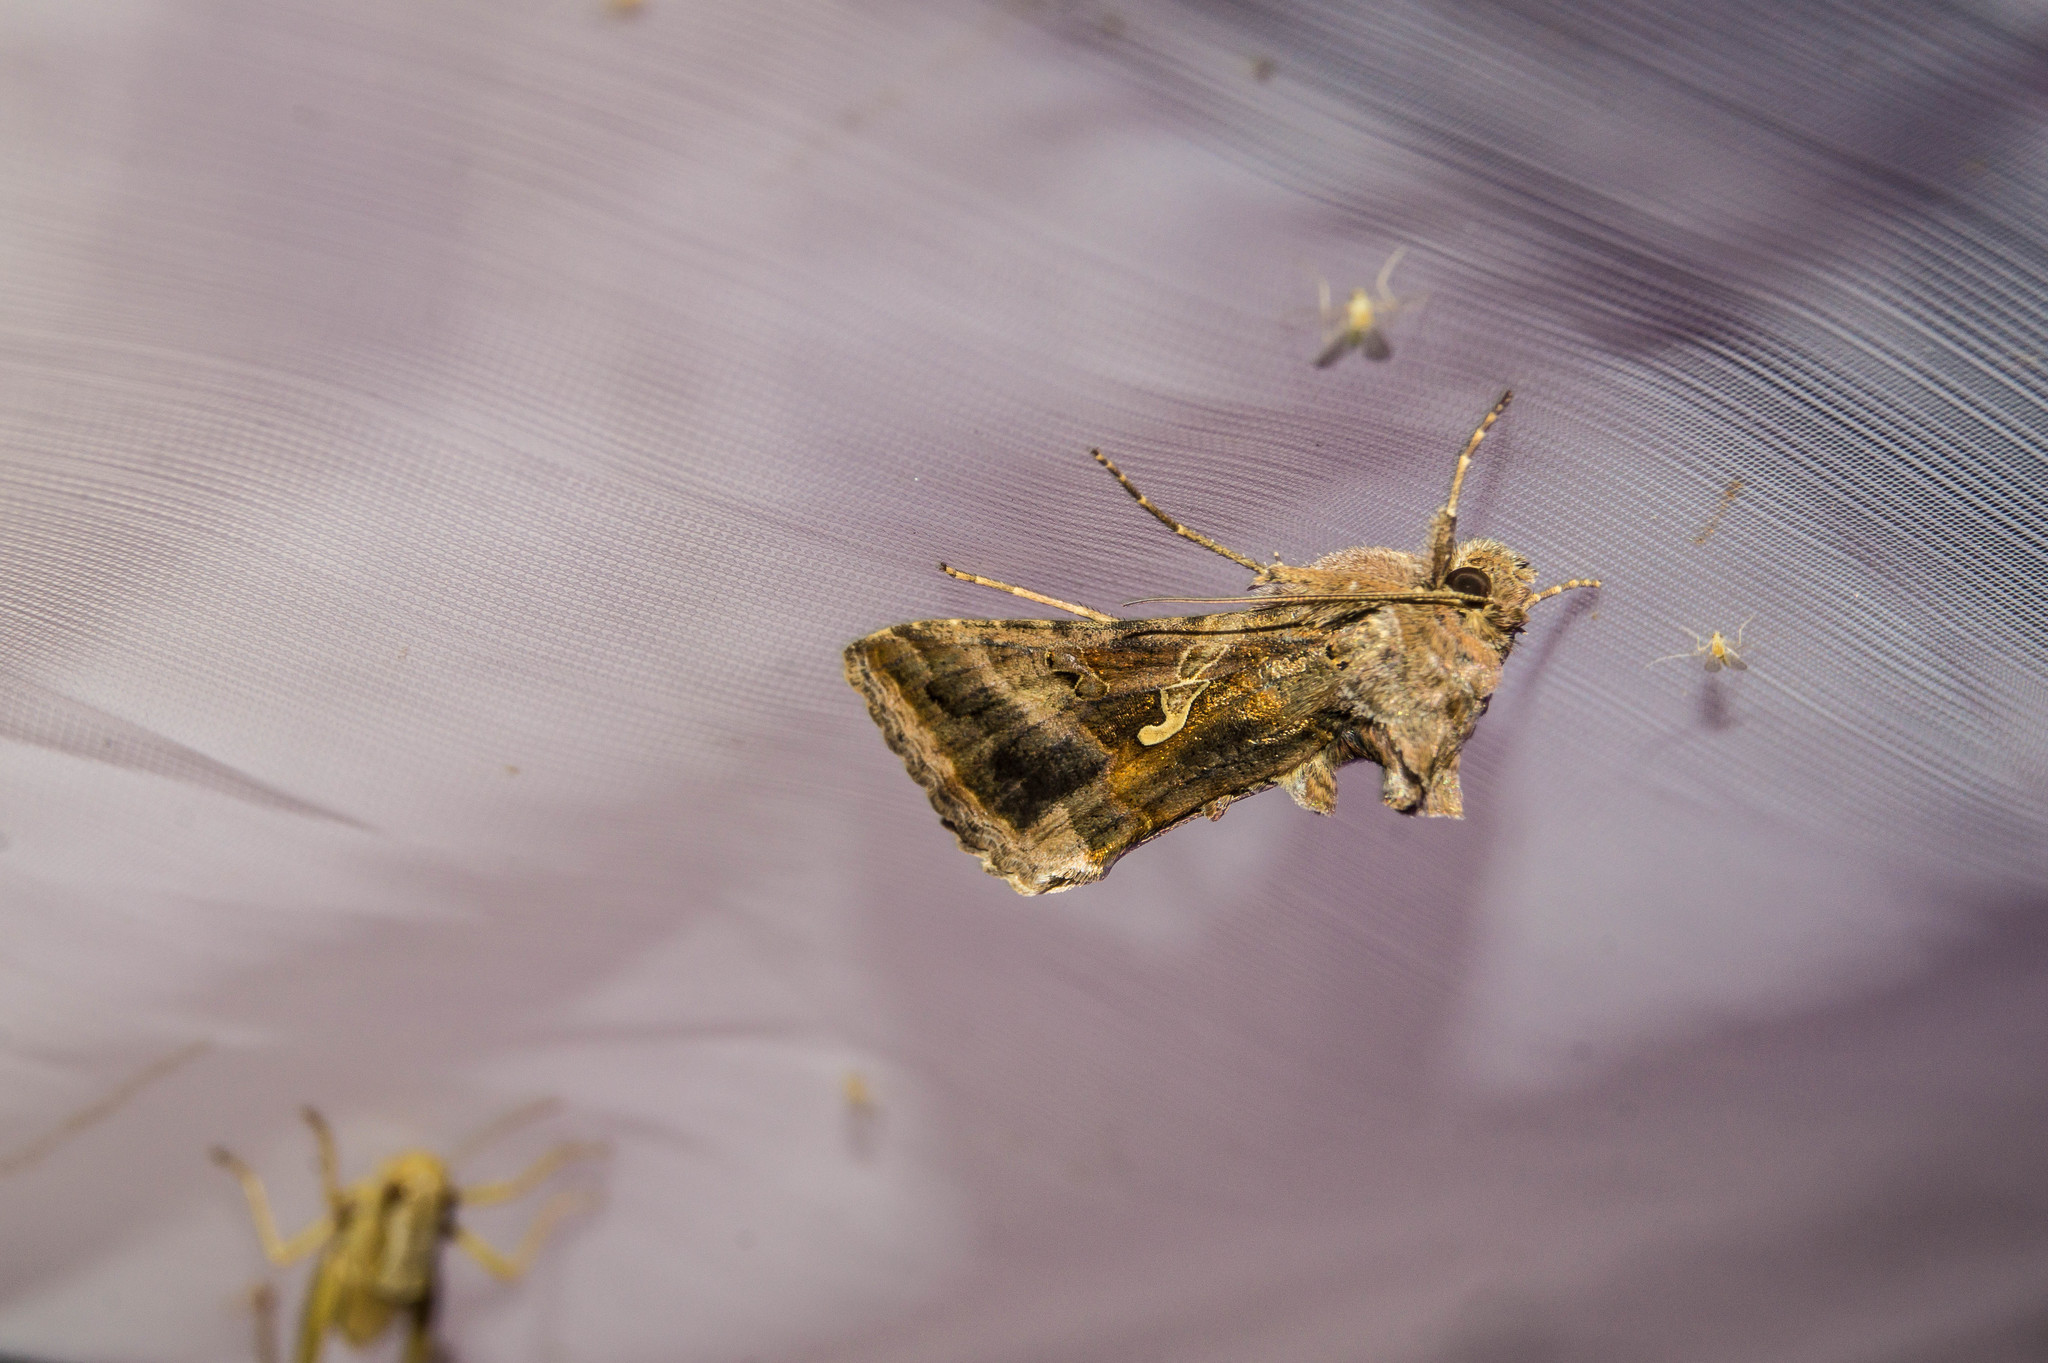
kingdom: Animalia
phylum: Arthropoda
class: Insecta
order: Lepidoptera
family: Noctuidae
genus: Autographa
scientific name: Autographa gamma
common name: Silver y
